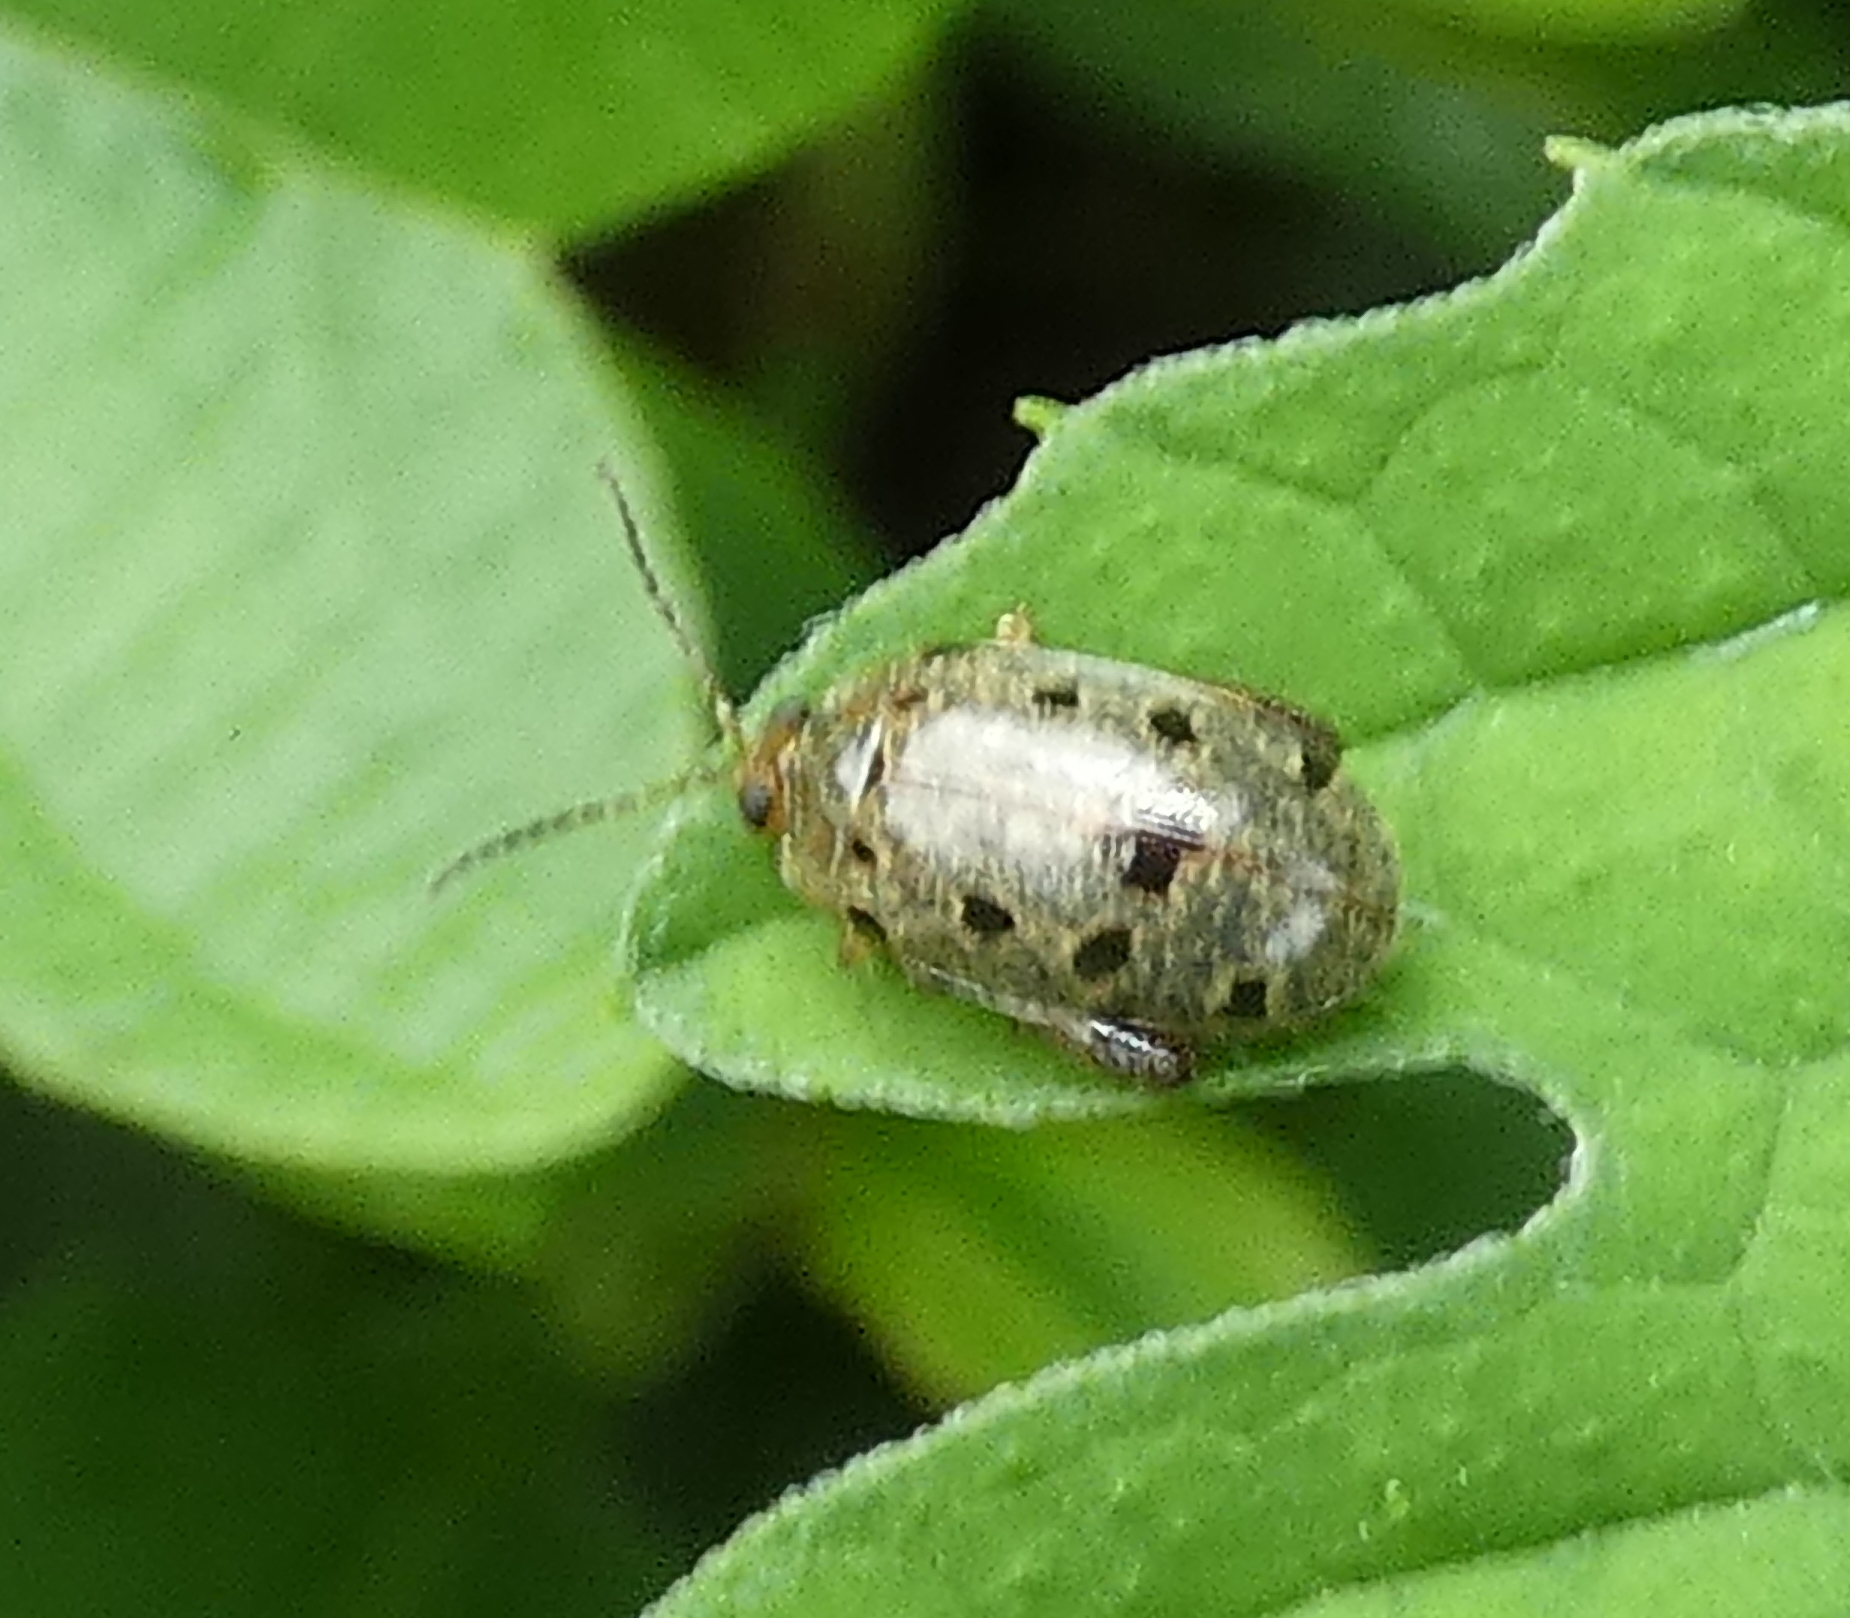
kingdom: Animalia
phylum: Arthropoda
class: Insecta
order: Coleoptera
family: Chrysomelidae
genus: Alagoasa
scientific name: Alagoasa
